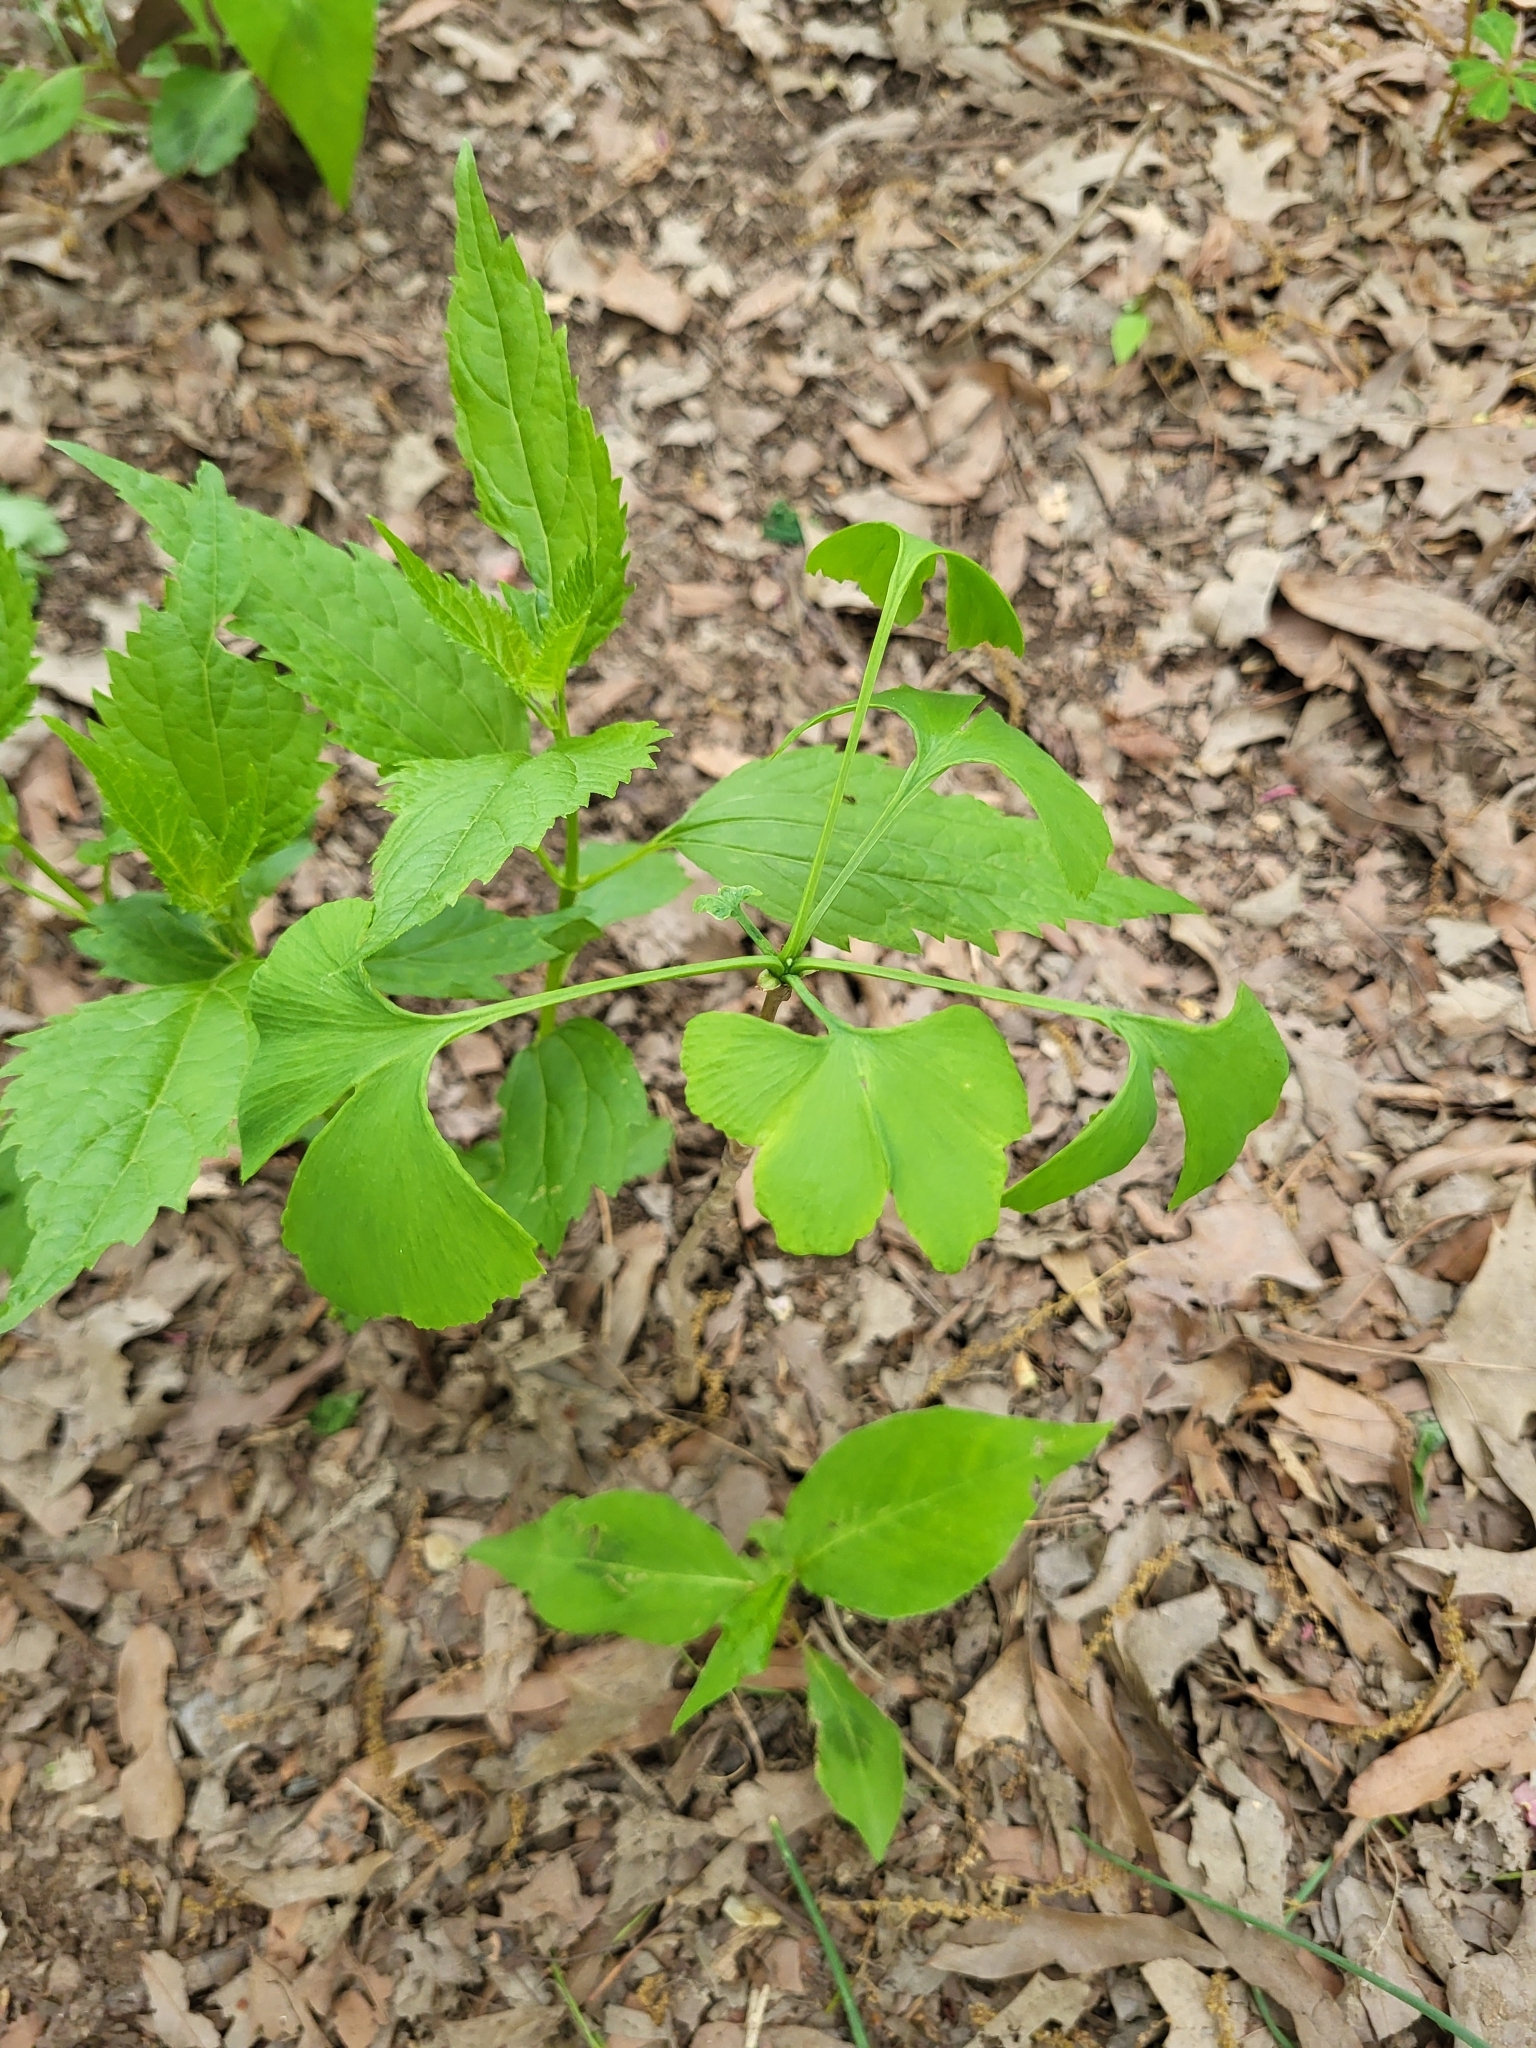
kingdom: Plantae
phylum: Tracheophyta
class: Ginkgoopsida
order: Ginkgoales
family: Ginkgoaceae
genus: Ginkgo
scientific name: Ginkgo biloba
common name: Ginkgo
